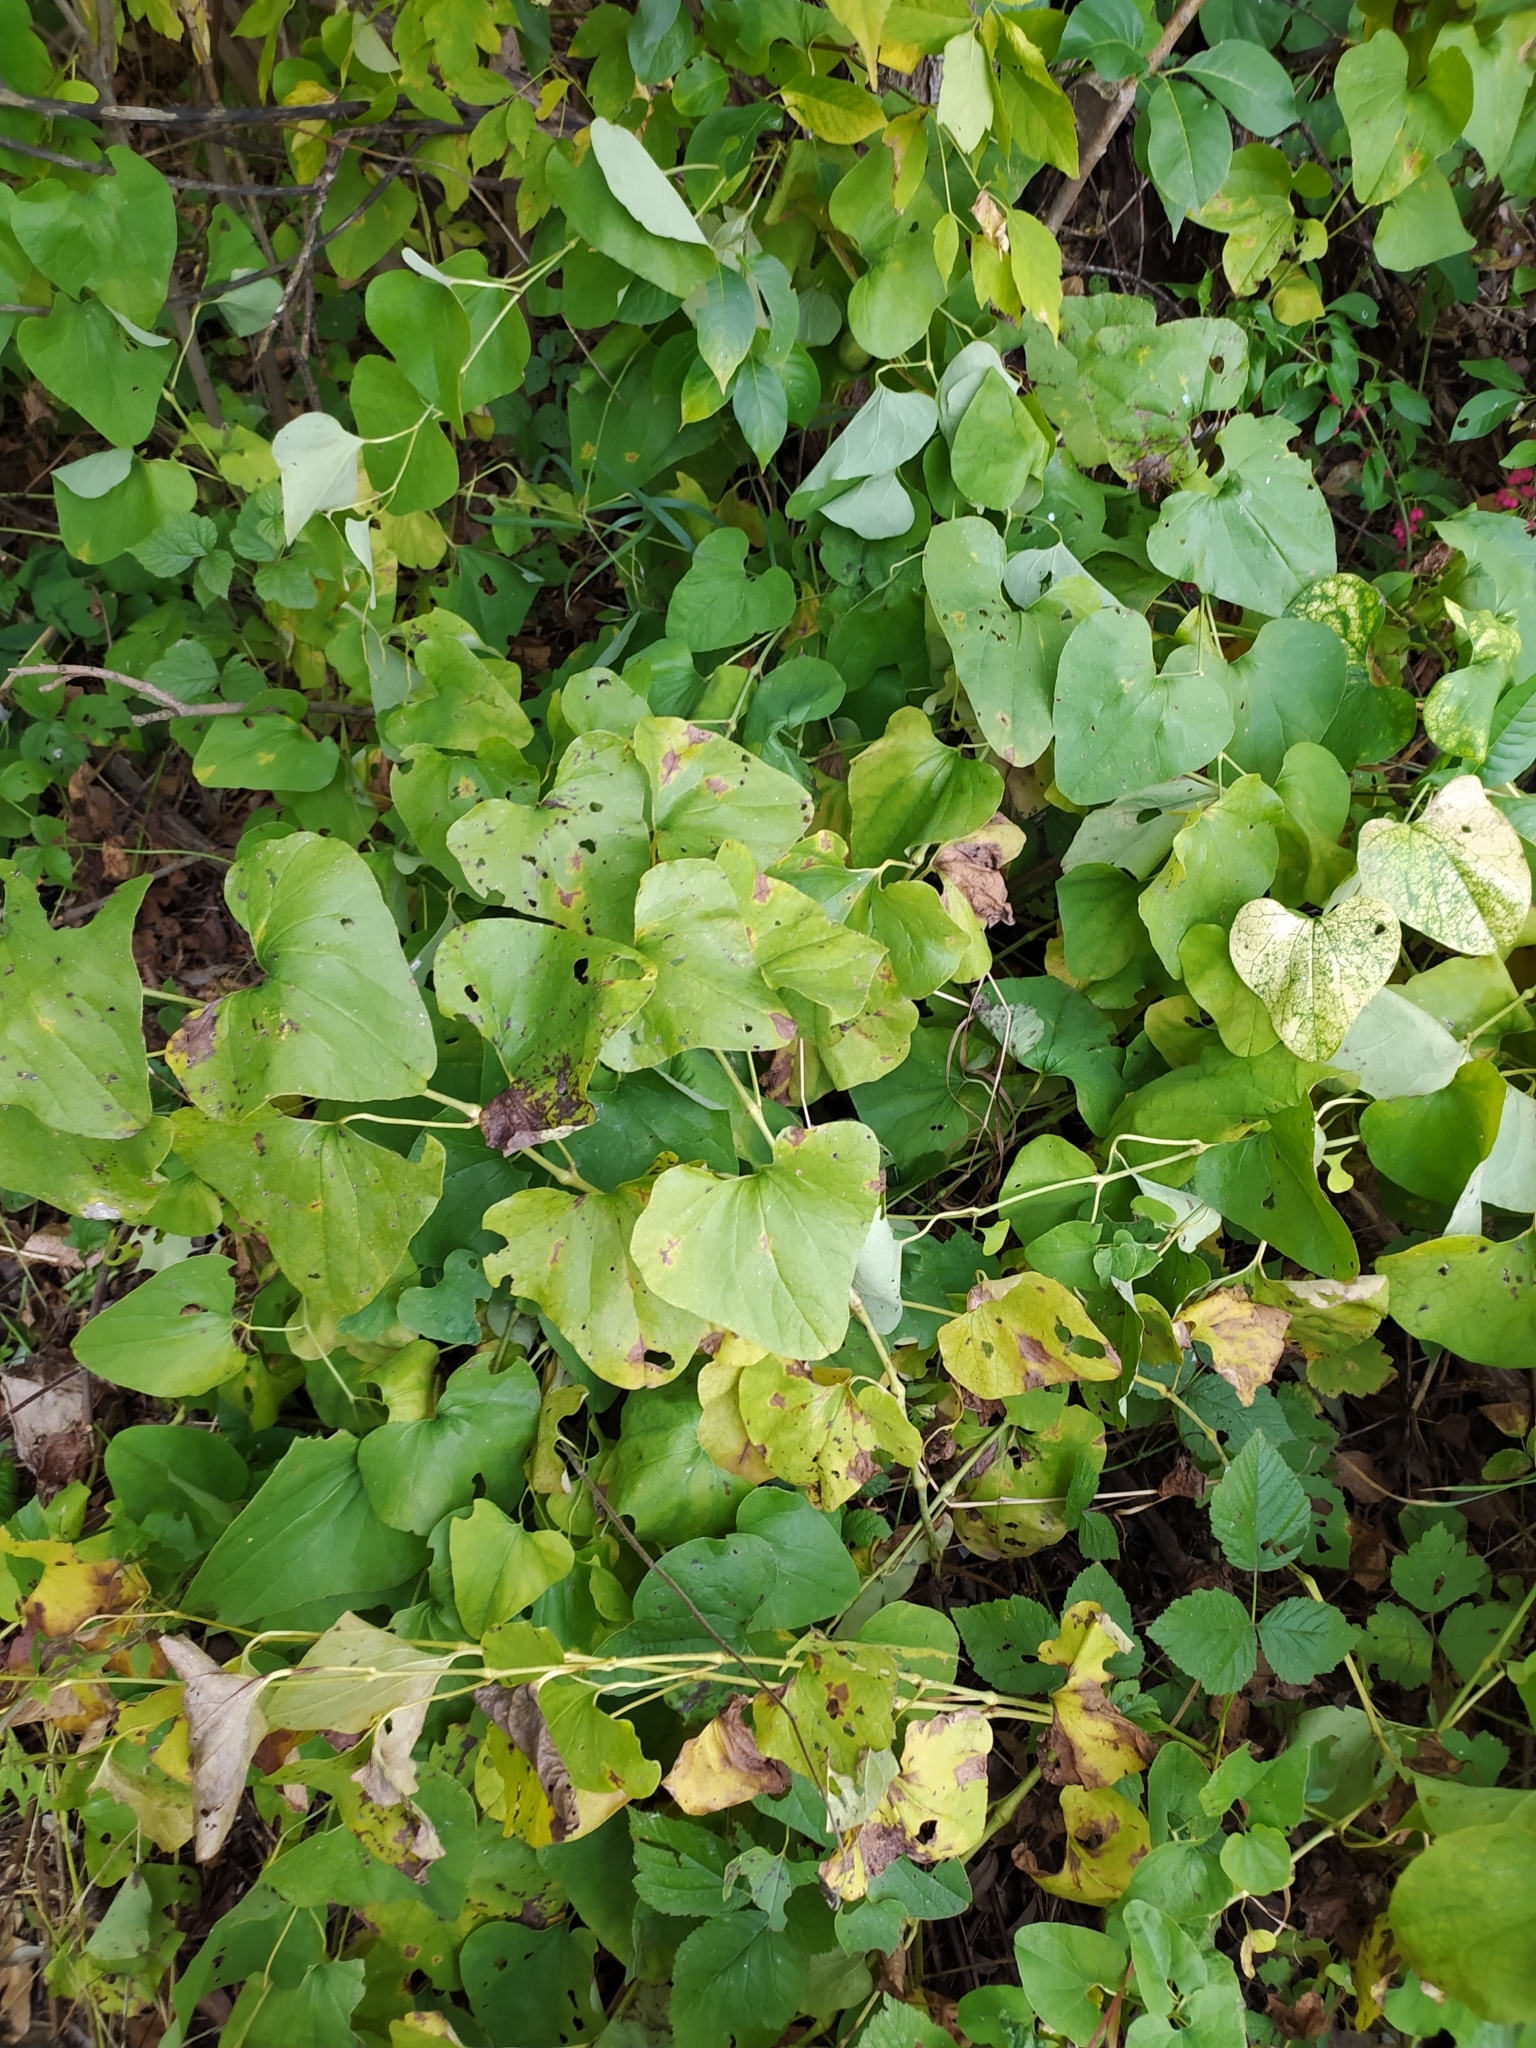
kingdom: Plantae
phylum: Tracheophyta
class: Magnoliopsida
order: Piperales
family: Aristolochiaceae
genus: Aristolochia
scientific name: Aristolochia clematitis
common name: Birthwort
